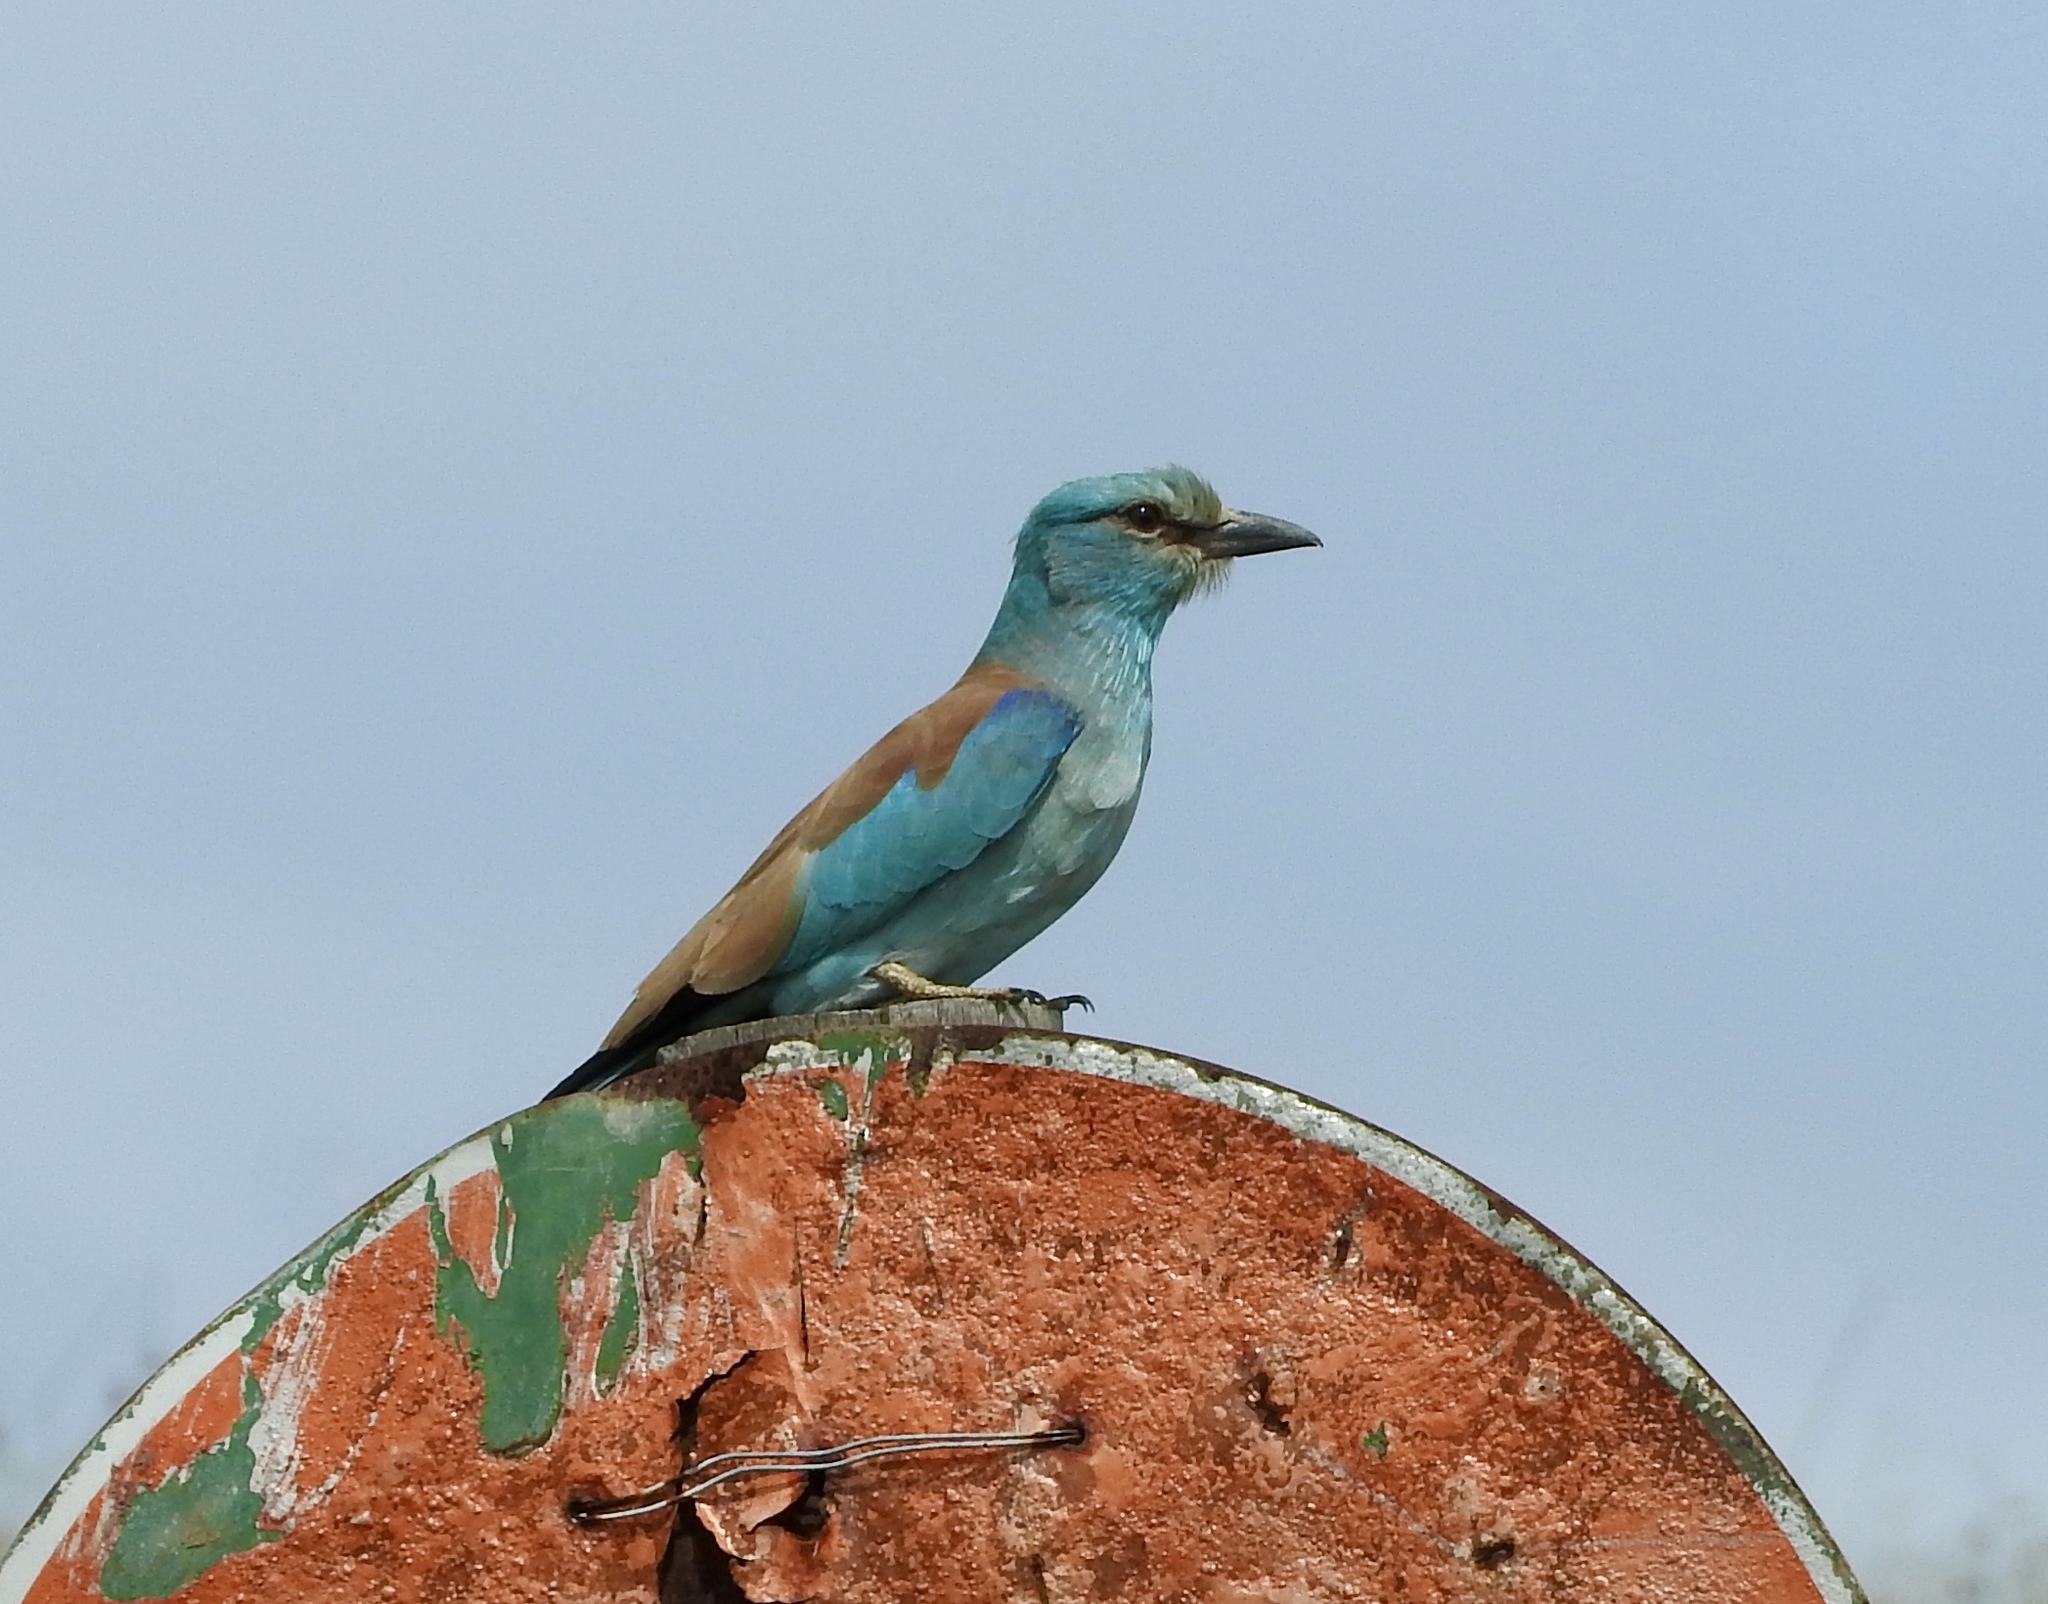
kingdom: Animalia
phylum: Chordata
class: Aves
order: Coraciiformes
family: Coraciidae
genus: Coracias
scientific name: Coracias garrulus
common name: European roller
